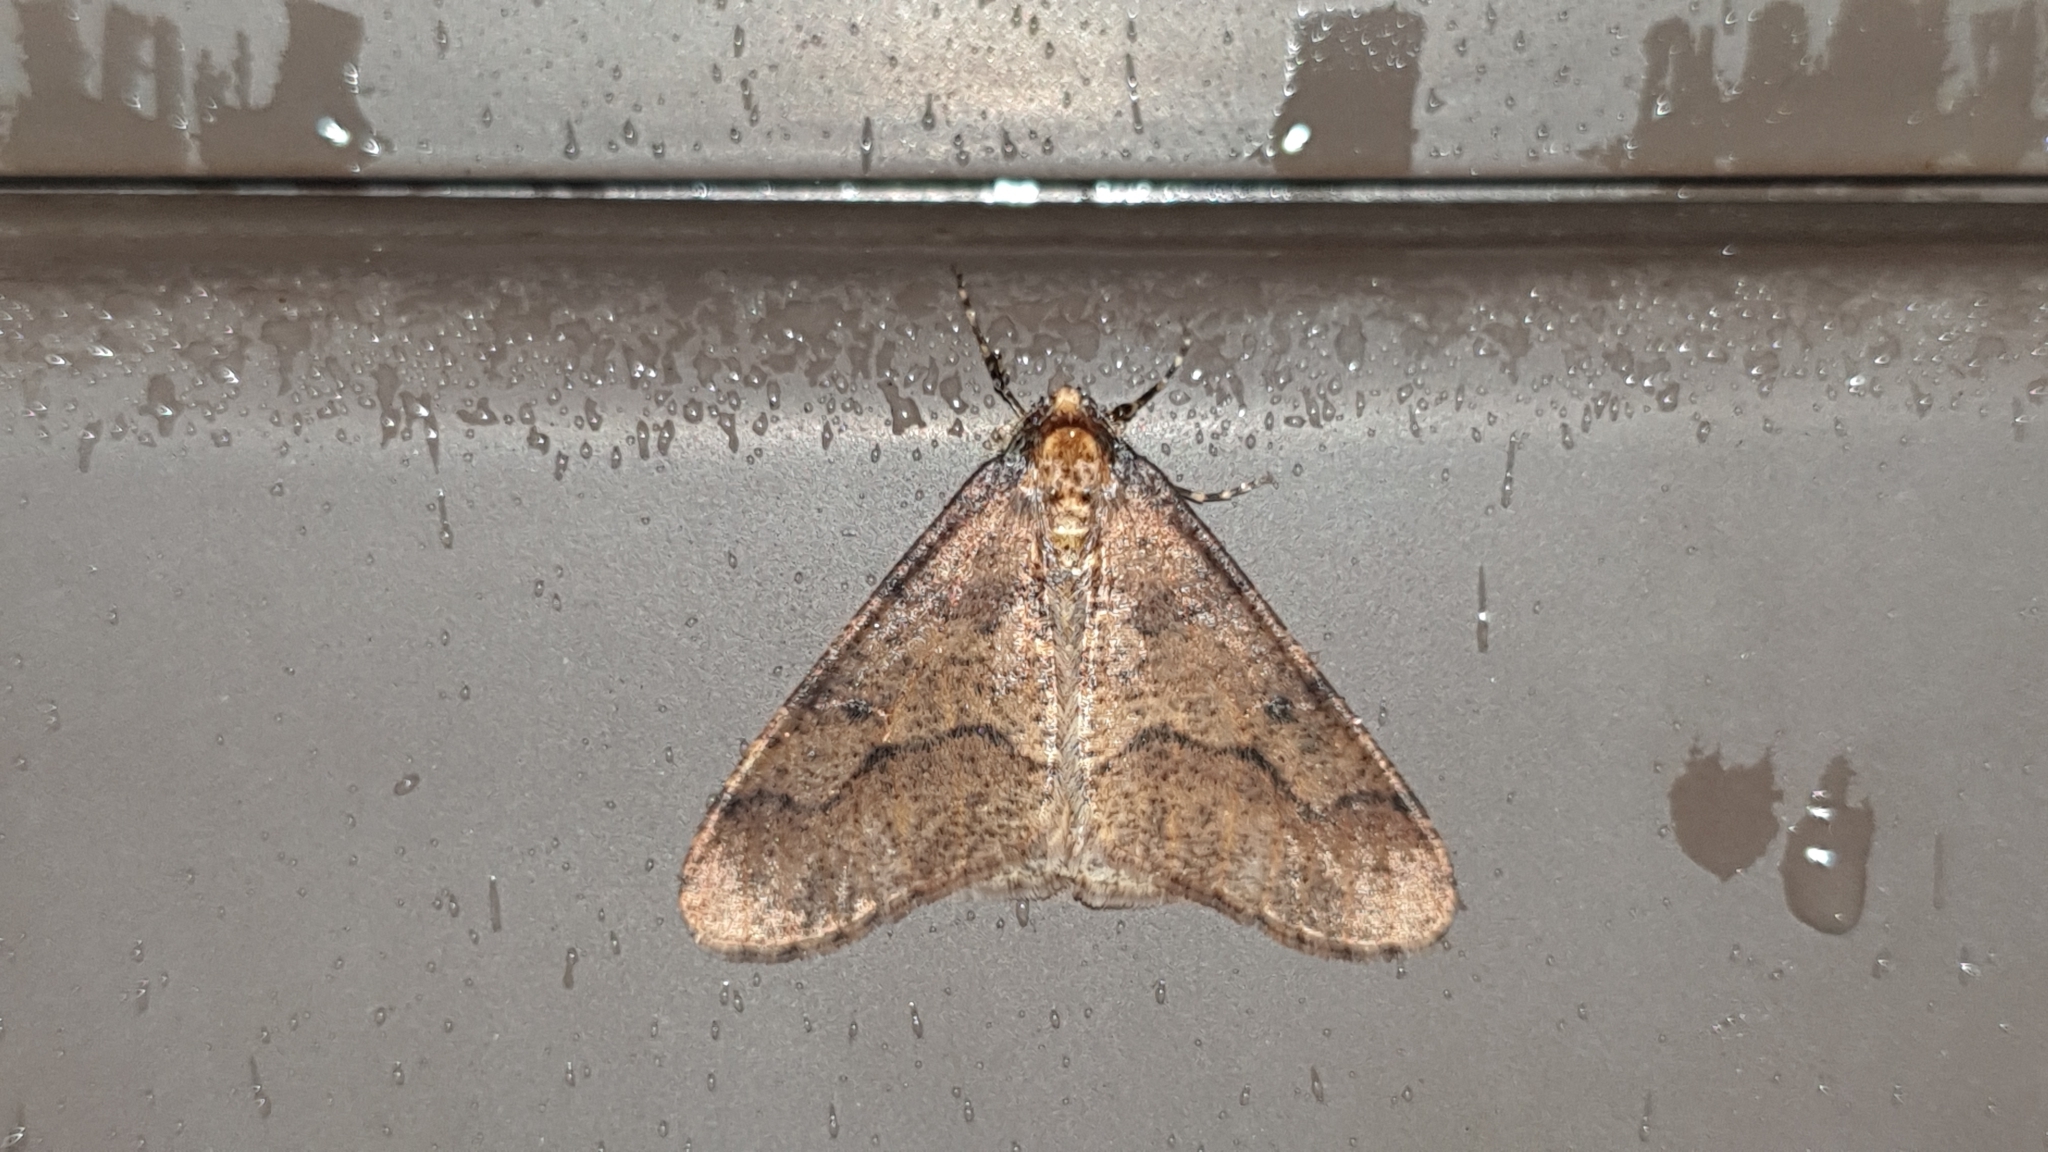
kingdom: Animalia
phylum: Arthropoda
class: Insecta
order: Lepidoptera
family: Geometridae
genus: Erannis
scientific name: Erannis defoliaria
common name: Mottled umber
